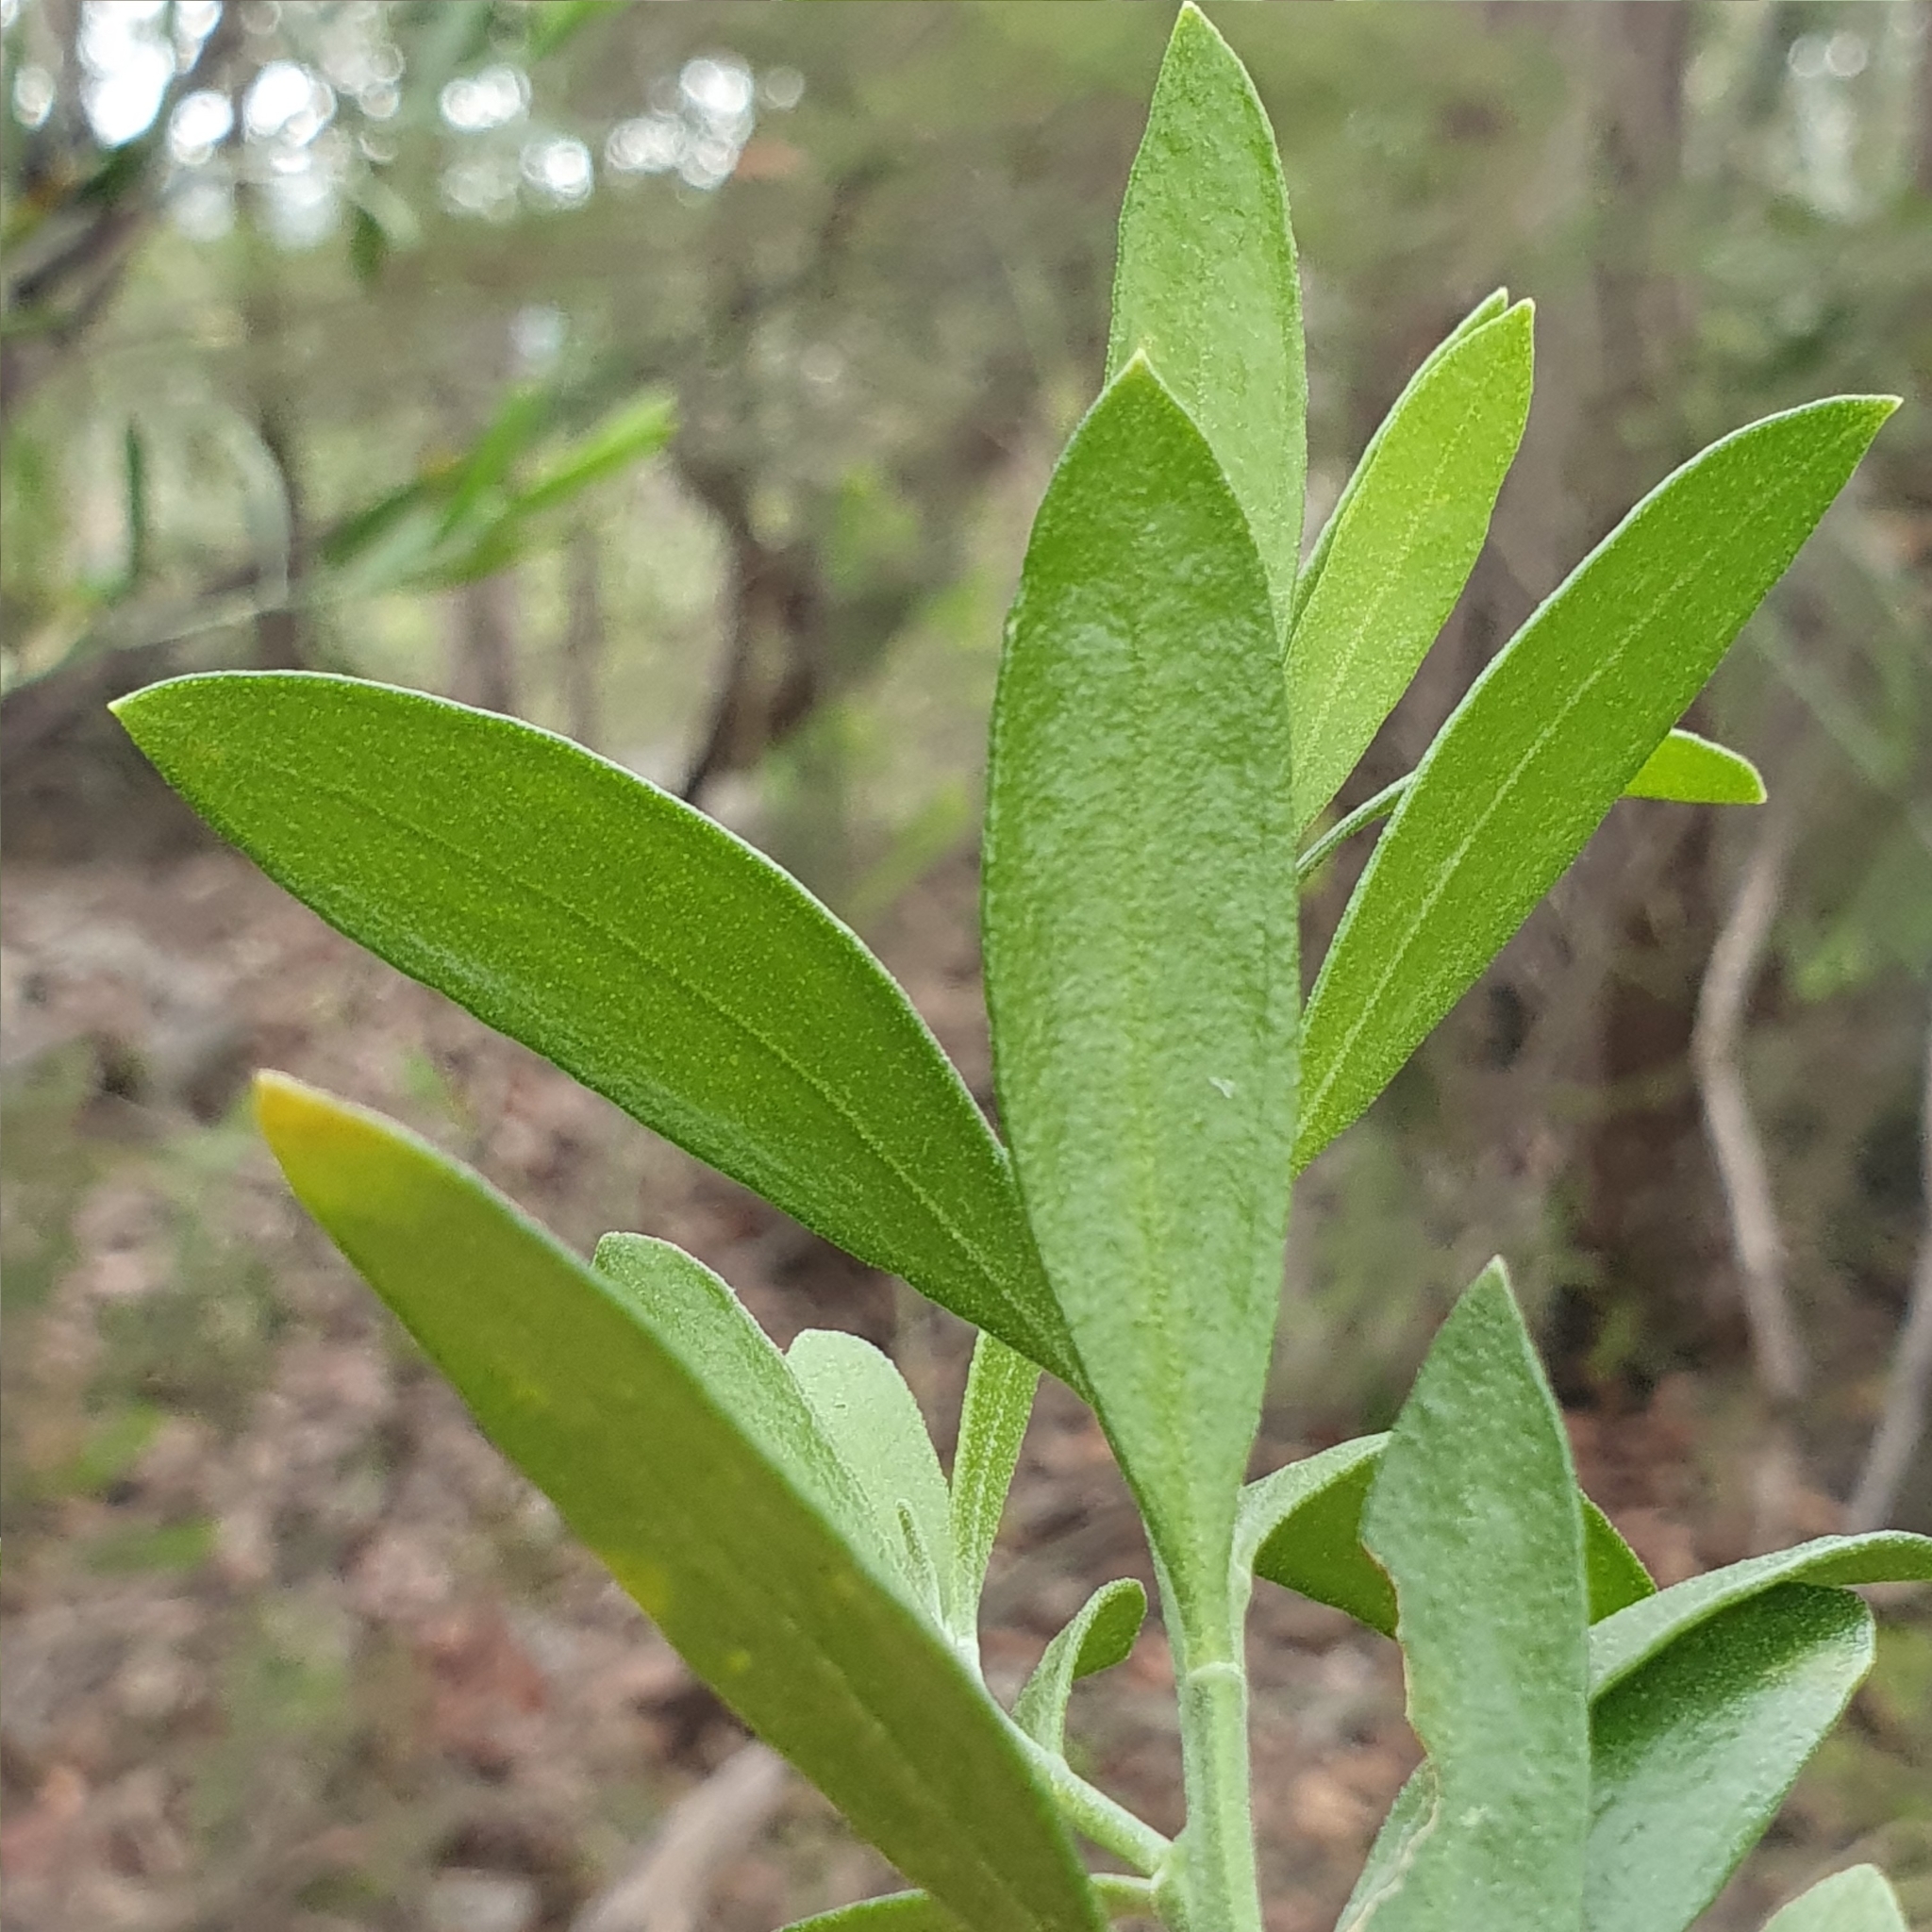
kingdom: Plantae
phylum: Tracheophyta
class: Magnoliopsida
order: Sapindales
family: Rutaceae
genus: Eriostemon
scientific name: Eriostemon australasius
